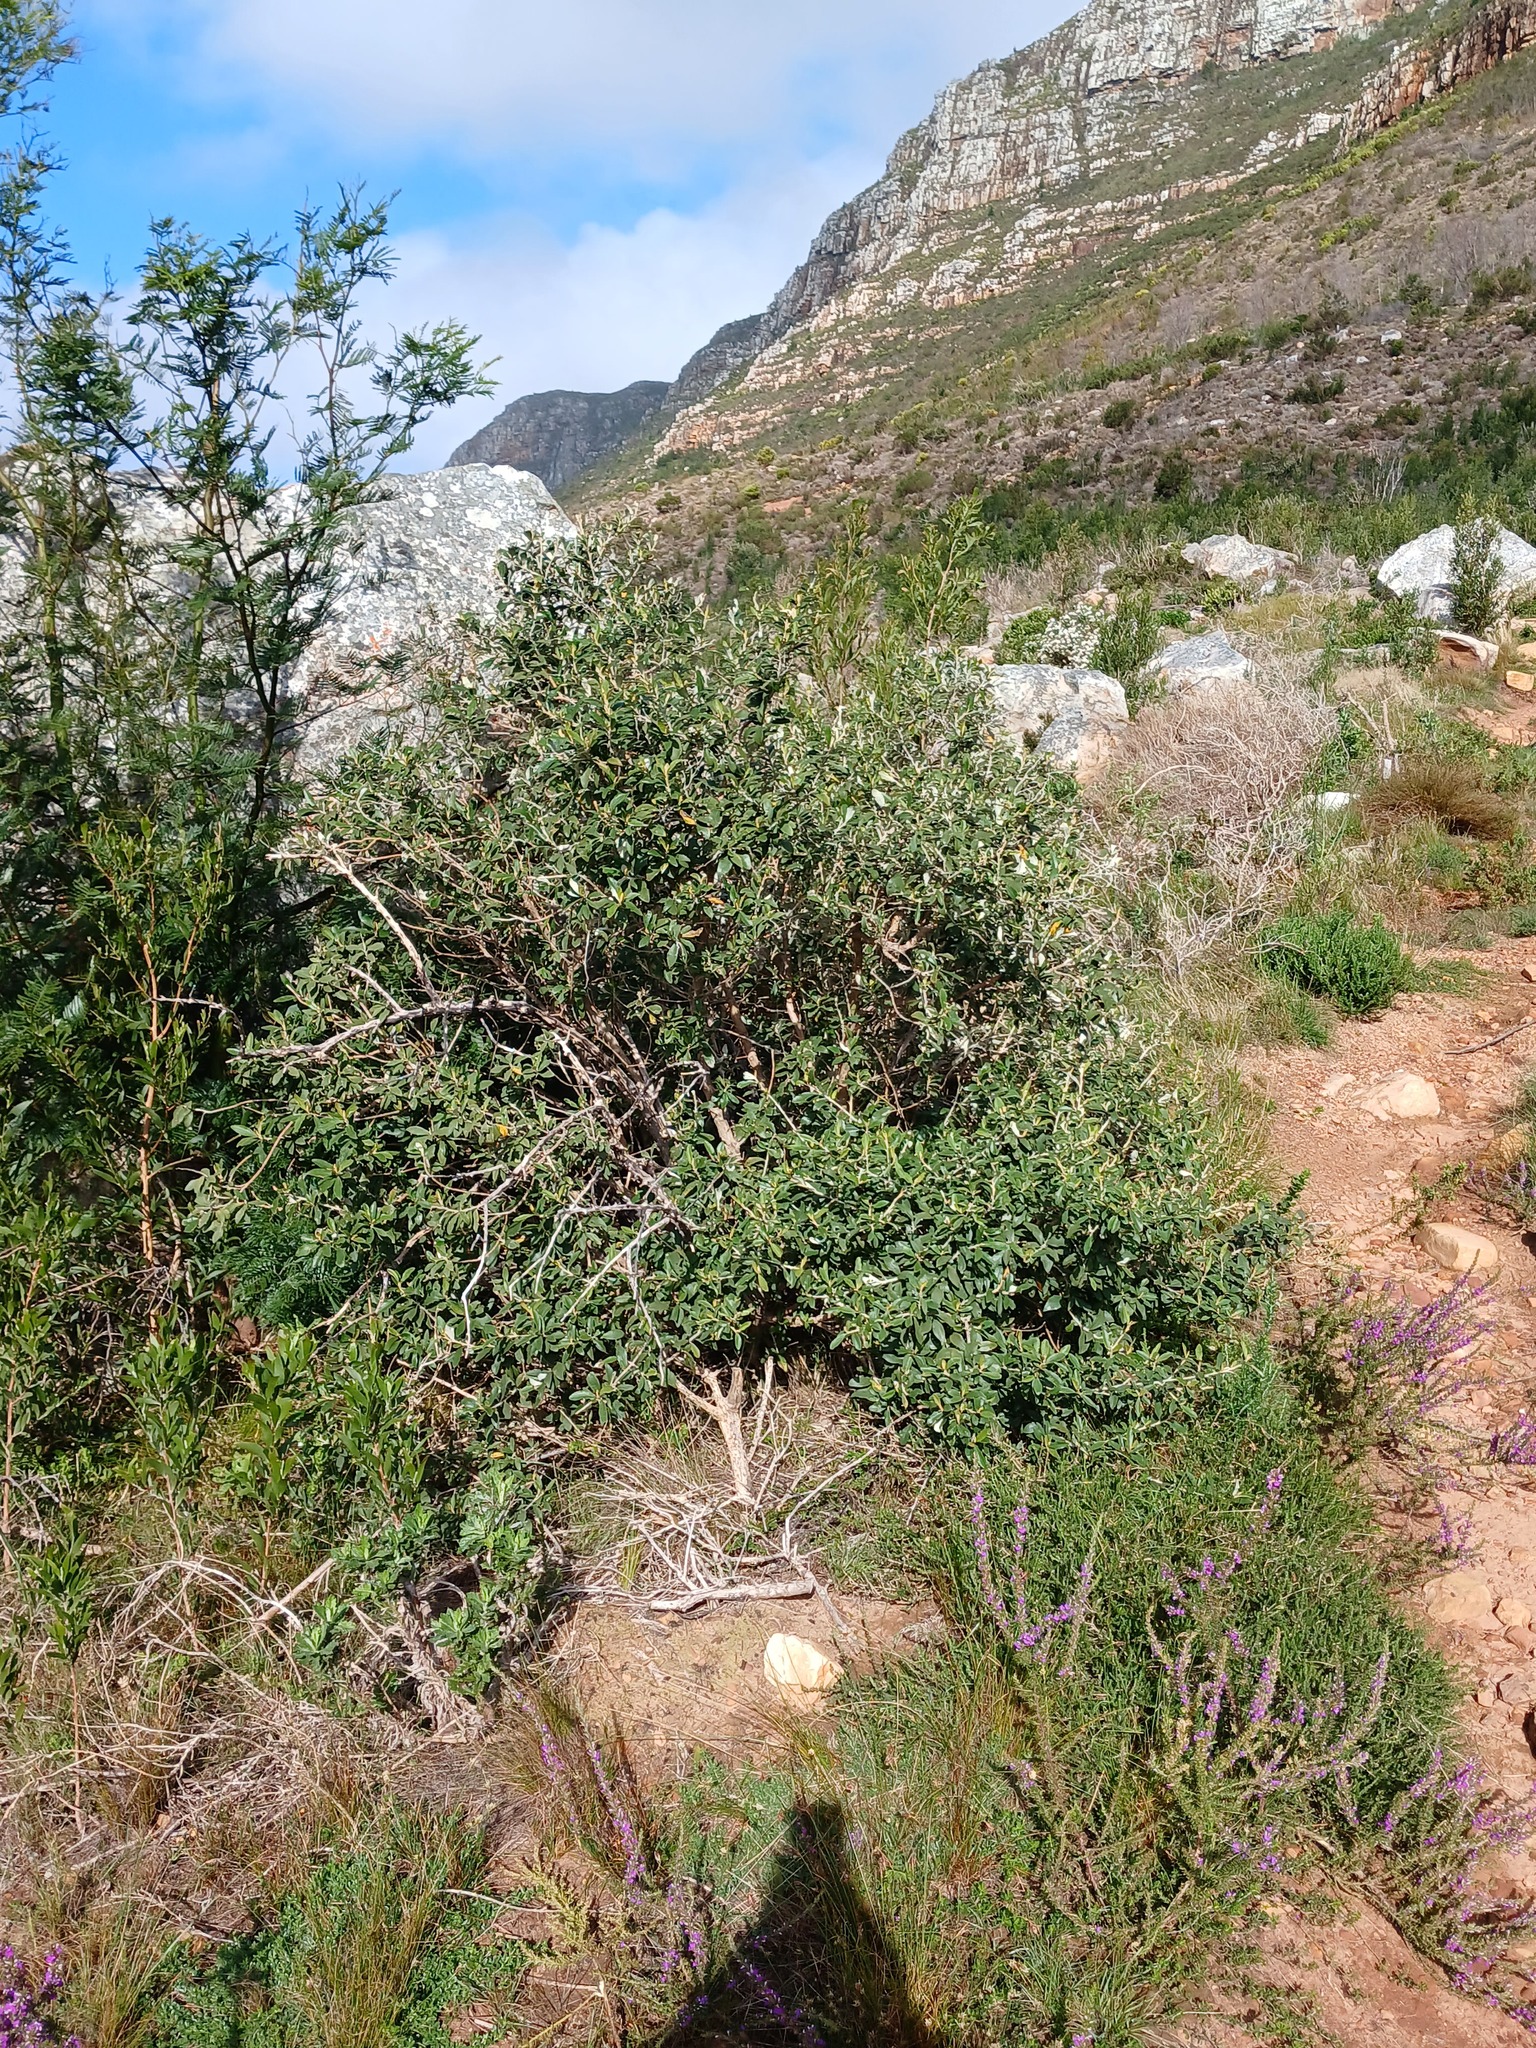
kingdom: Plantae
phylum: Tracheophyta
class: Magnoliopsida
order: Malpighiales
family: Achariaceae
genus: Kiggelaria
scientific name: Kiggelaria africana
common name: Wild peach
